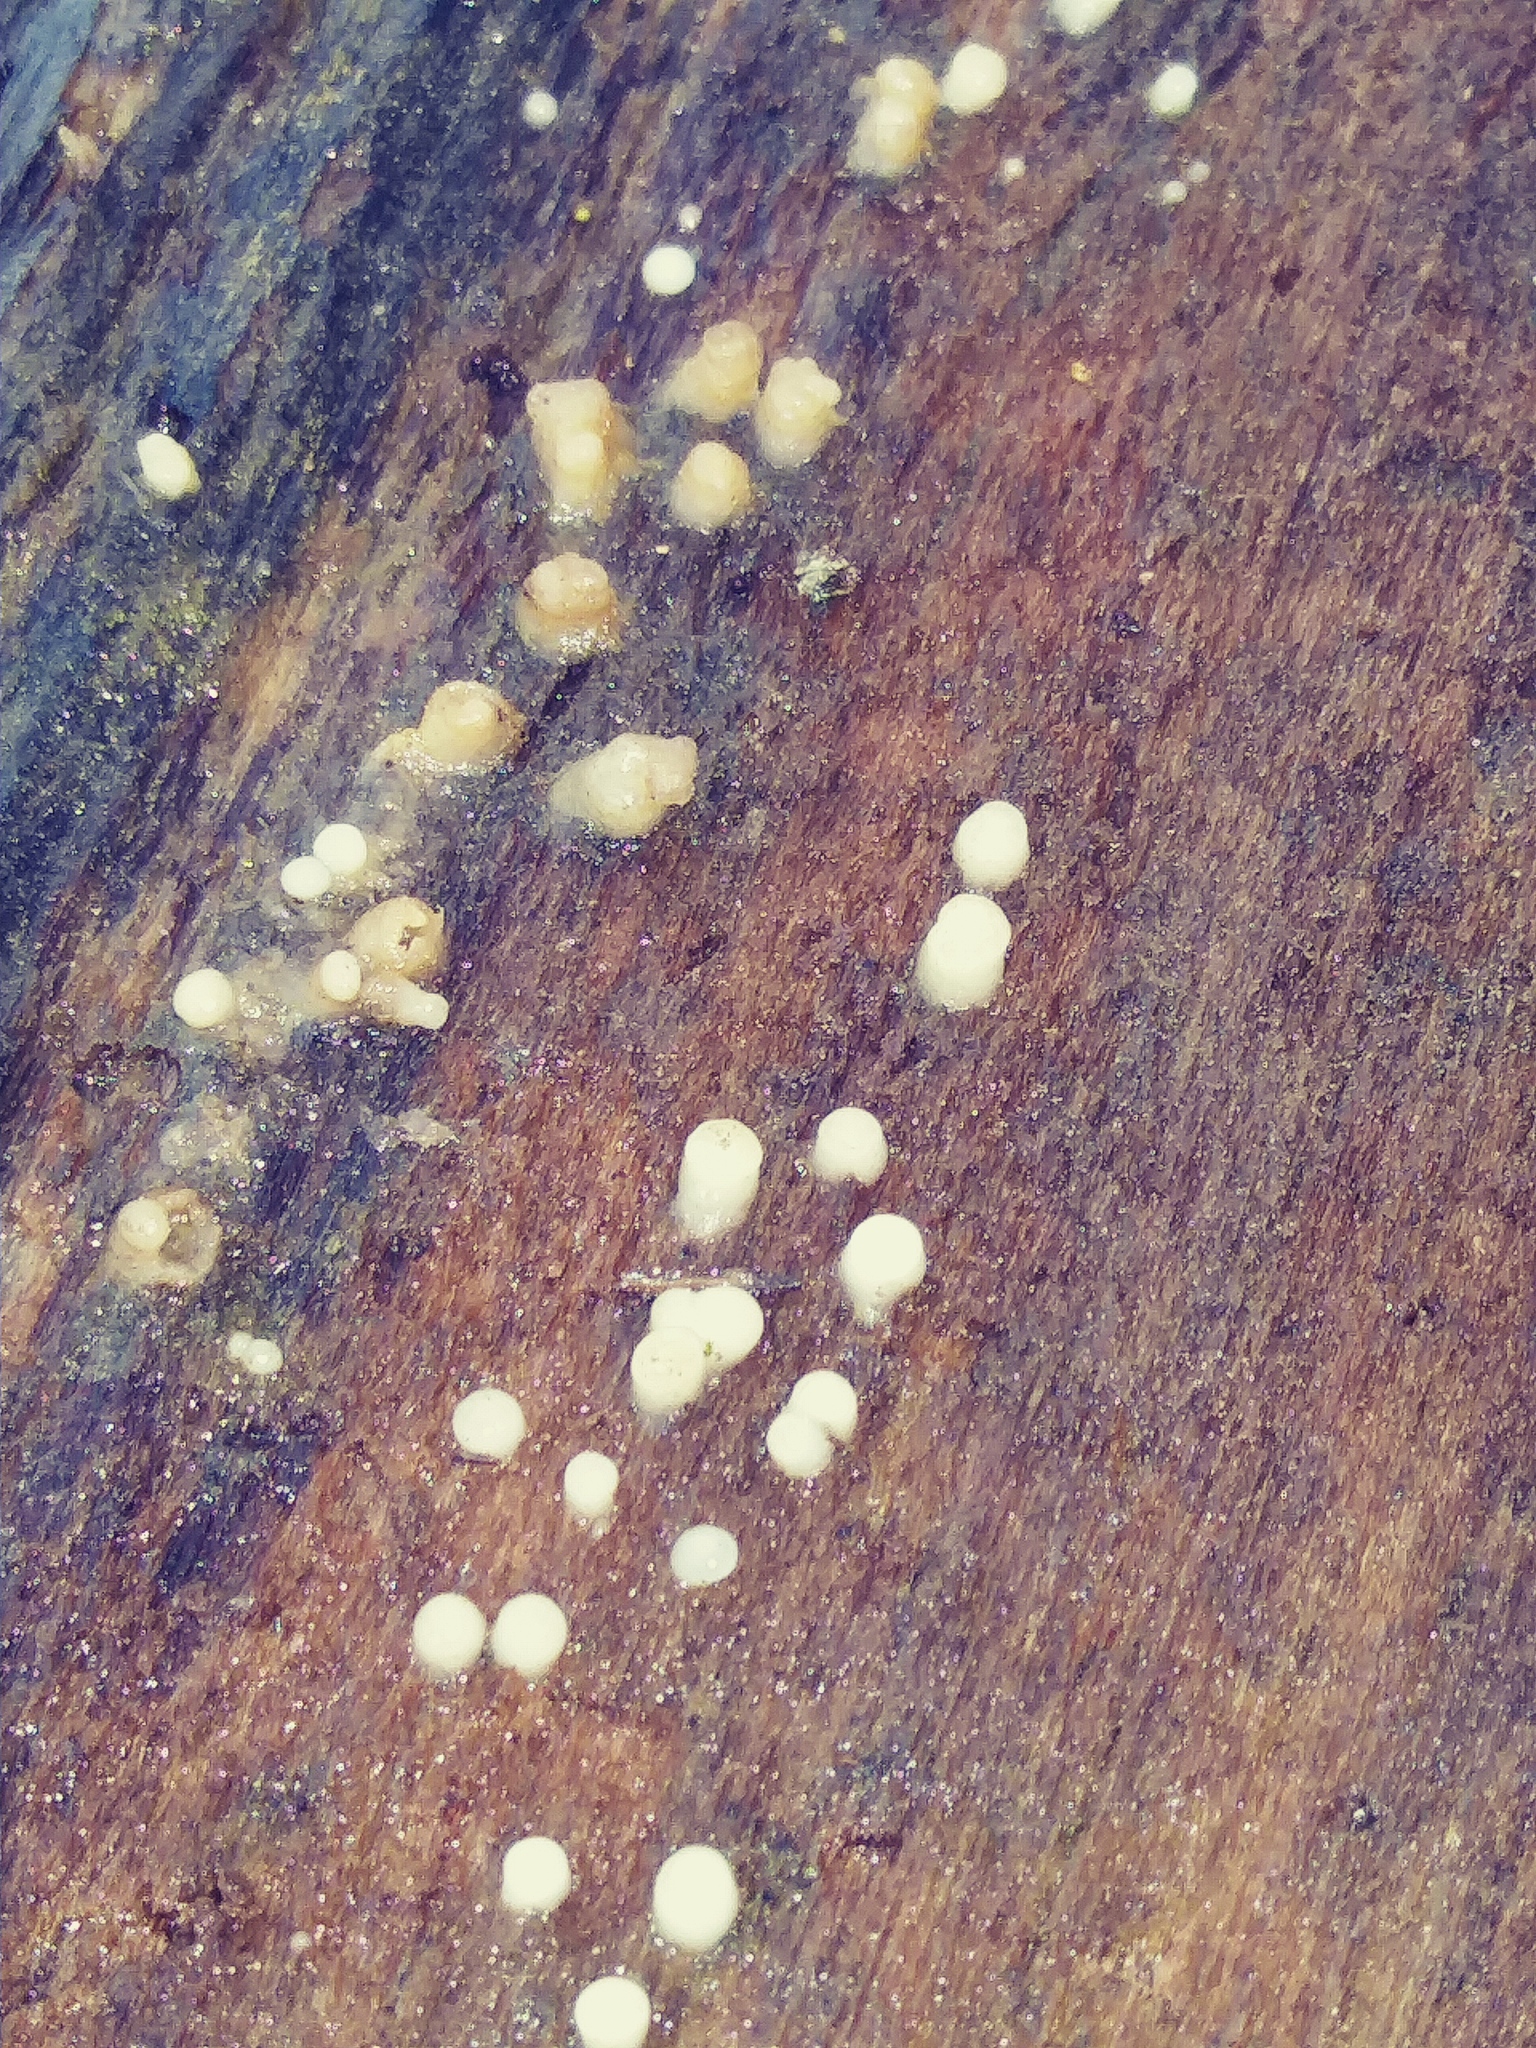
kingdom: Fungi
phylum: Basidiomycota
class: Atractiellomycetes
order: Atractiellales
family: Phleogenaceae
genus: Helicogloea
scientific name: Helicogloea compressa
